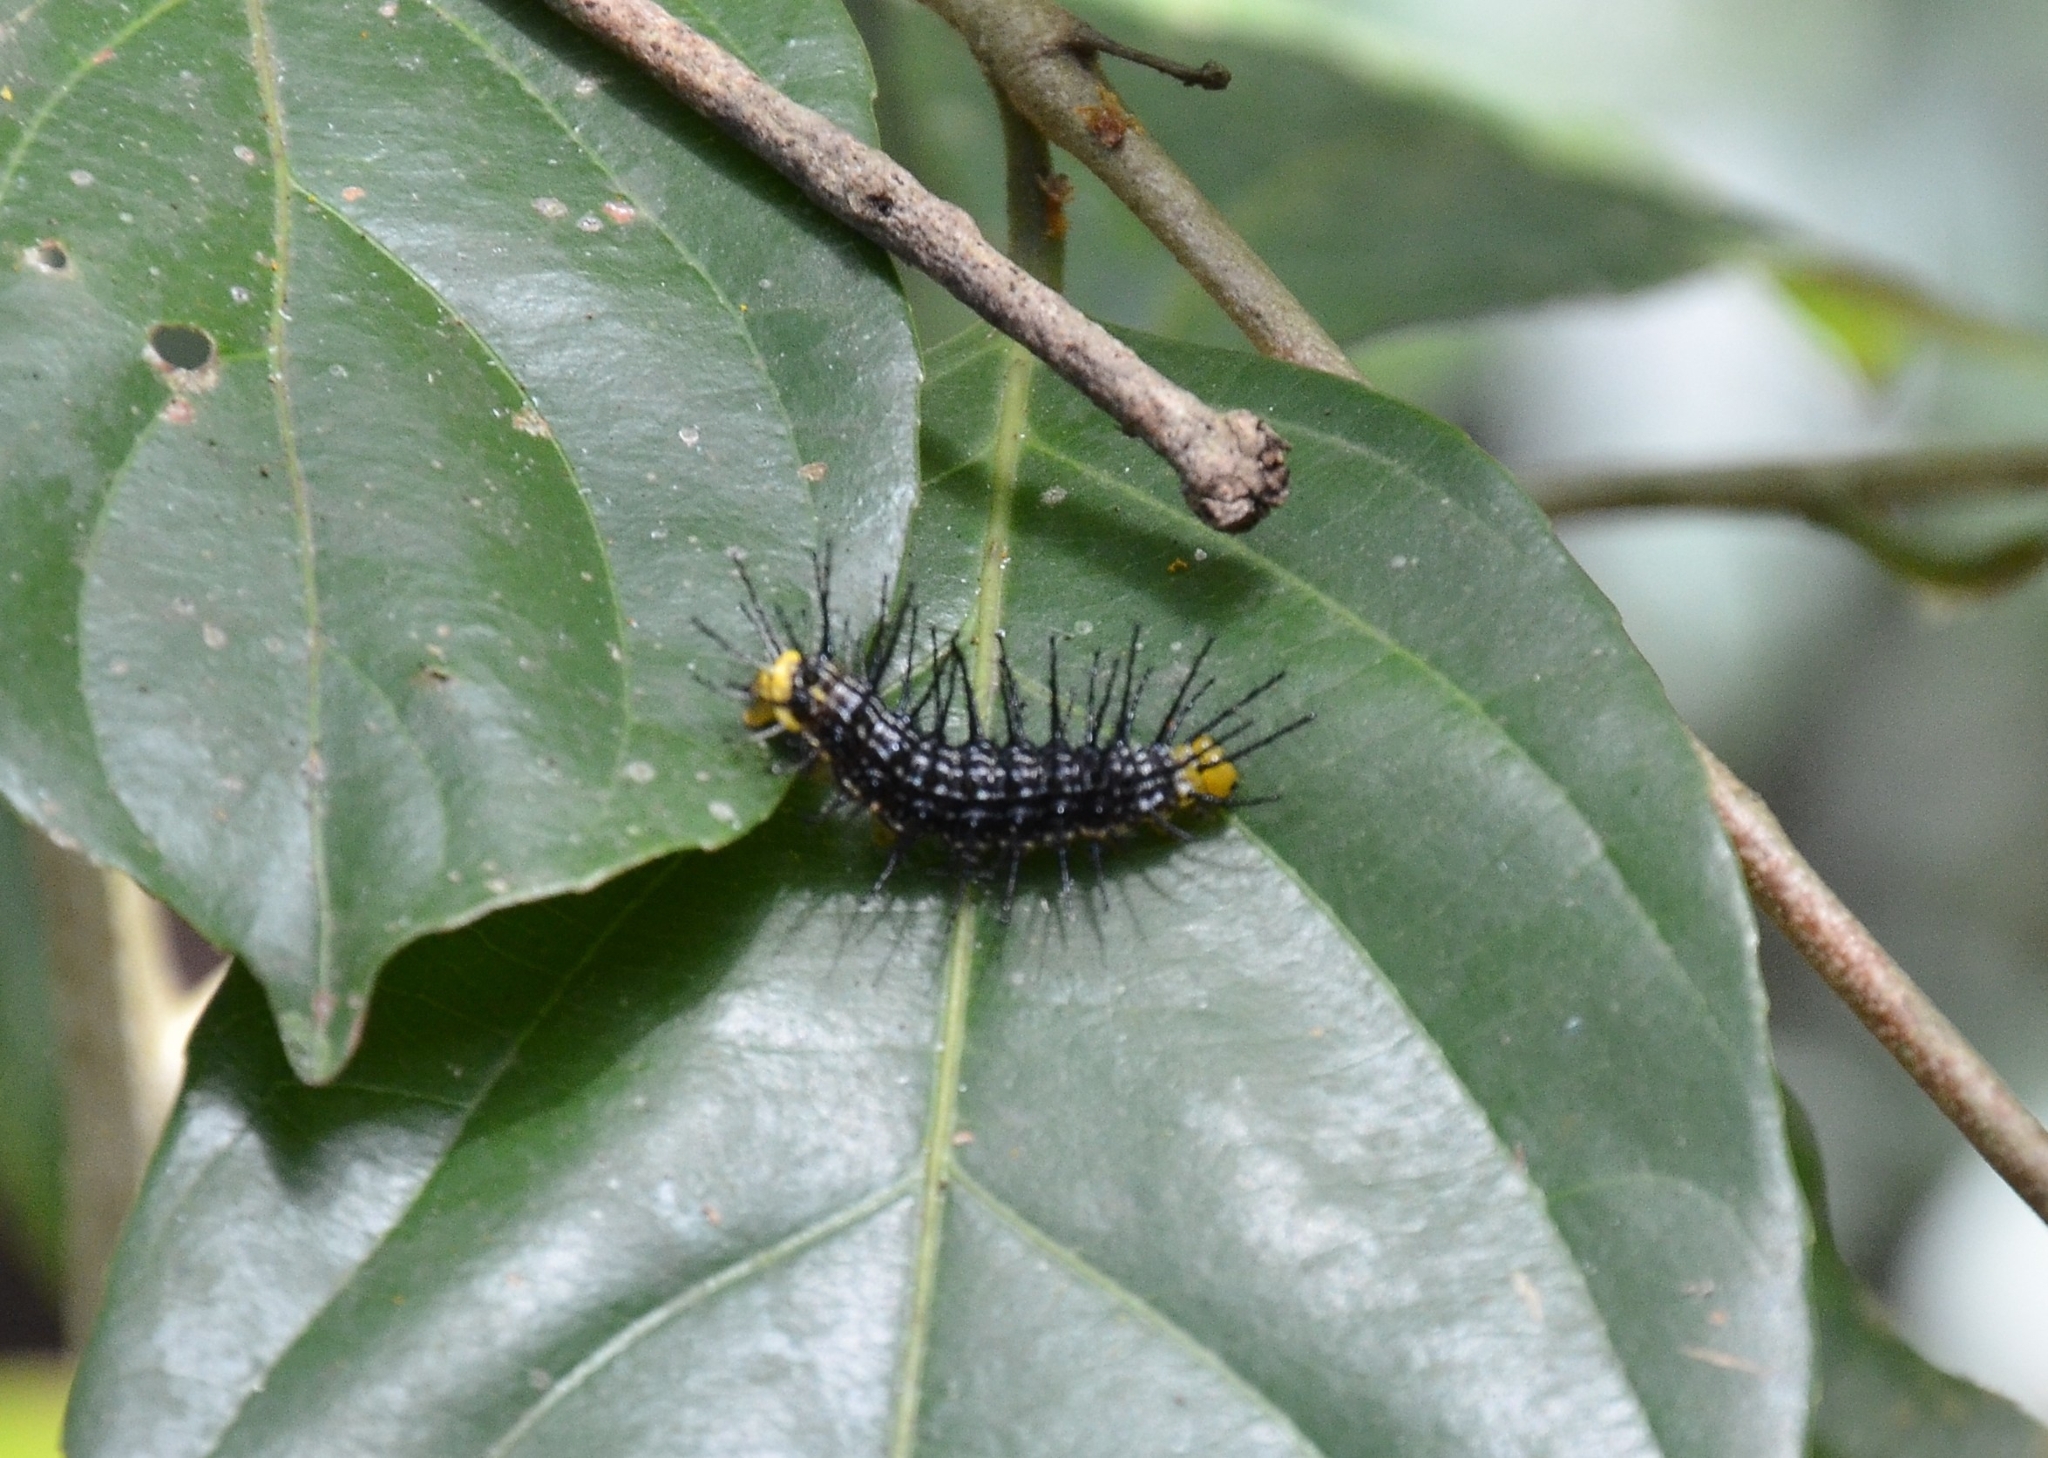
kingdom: Animalia
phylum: Arthropoda
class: Insecta
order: Lepidoptera
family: Nymphalidae
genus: Cirrochroa
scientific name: Cirrochroa thais
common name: Tamil yeoman
